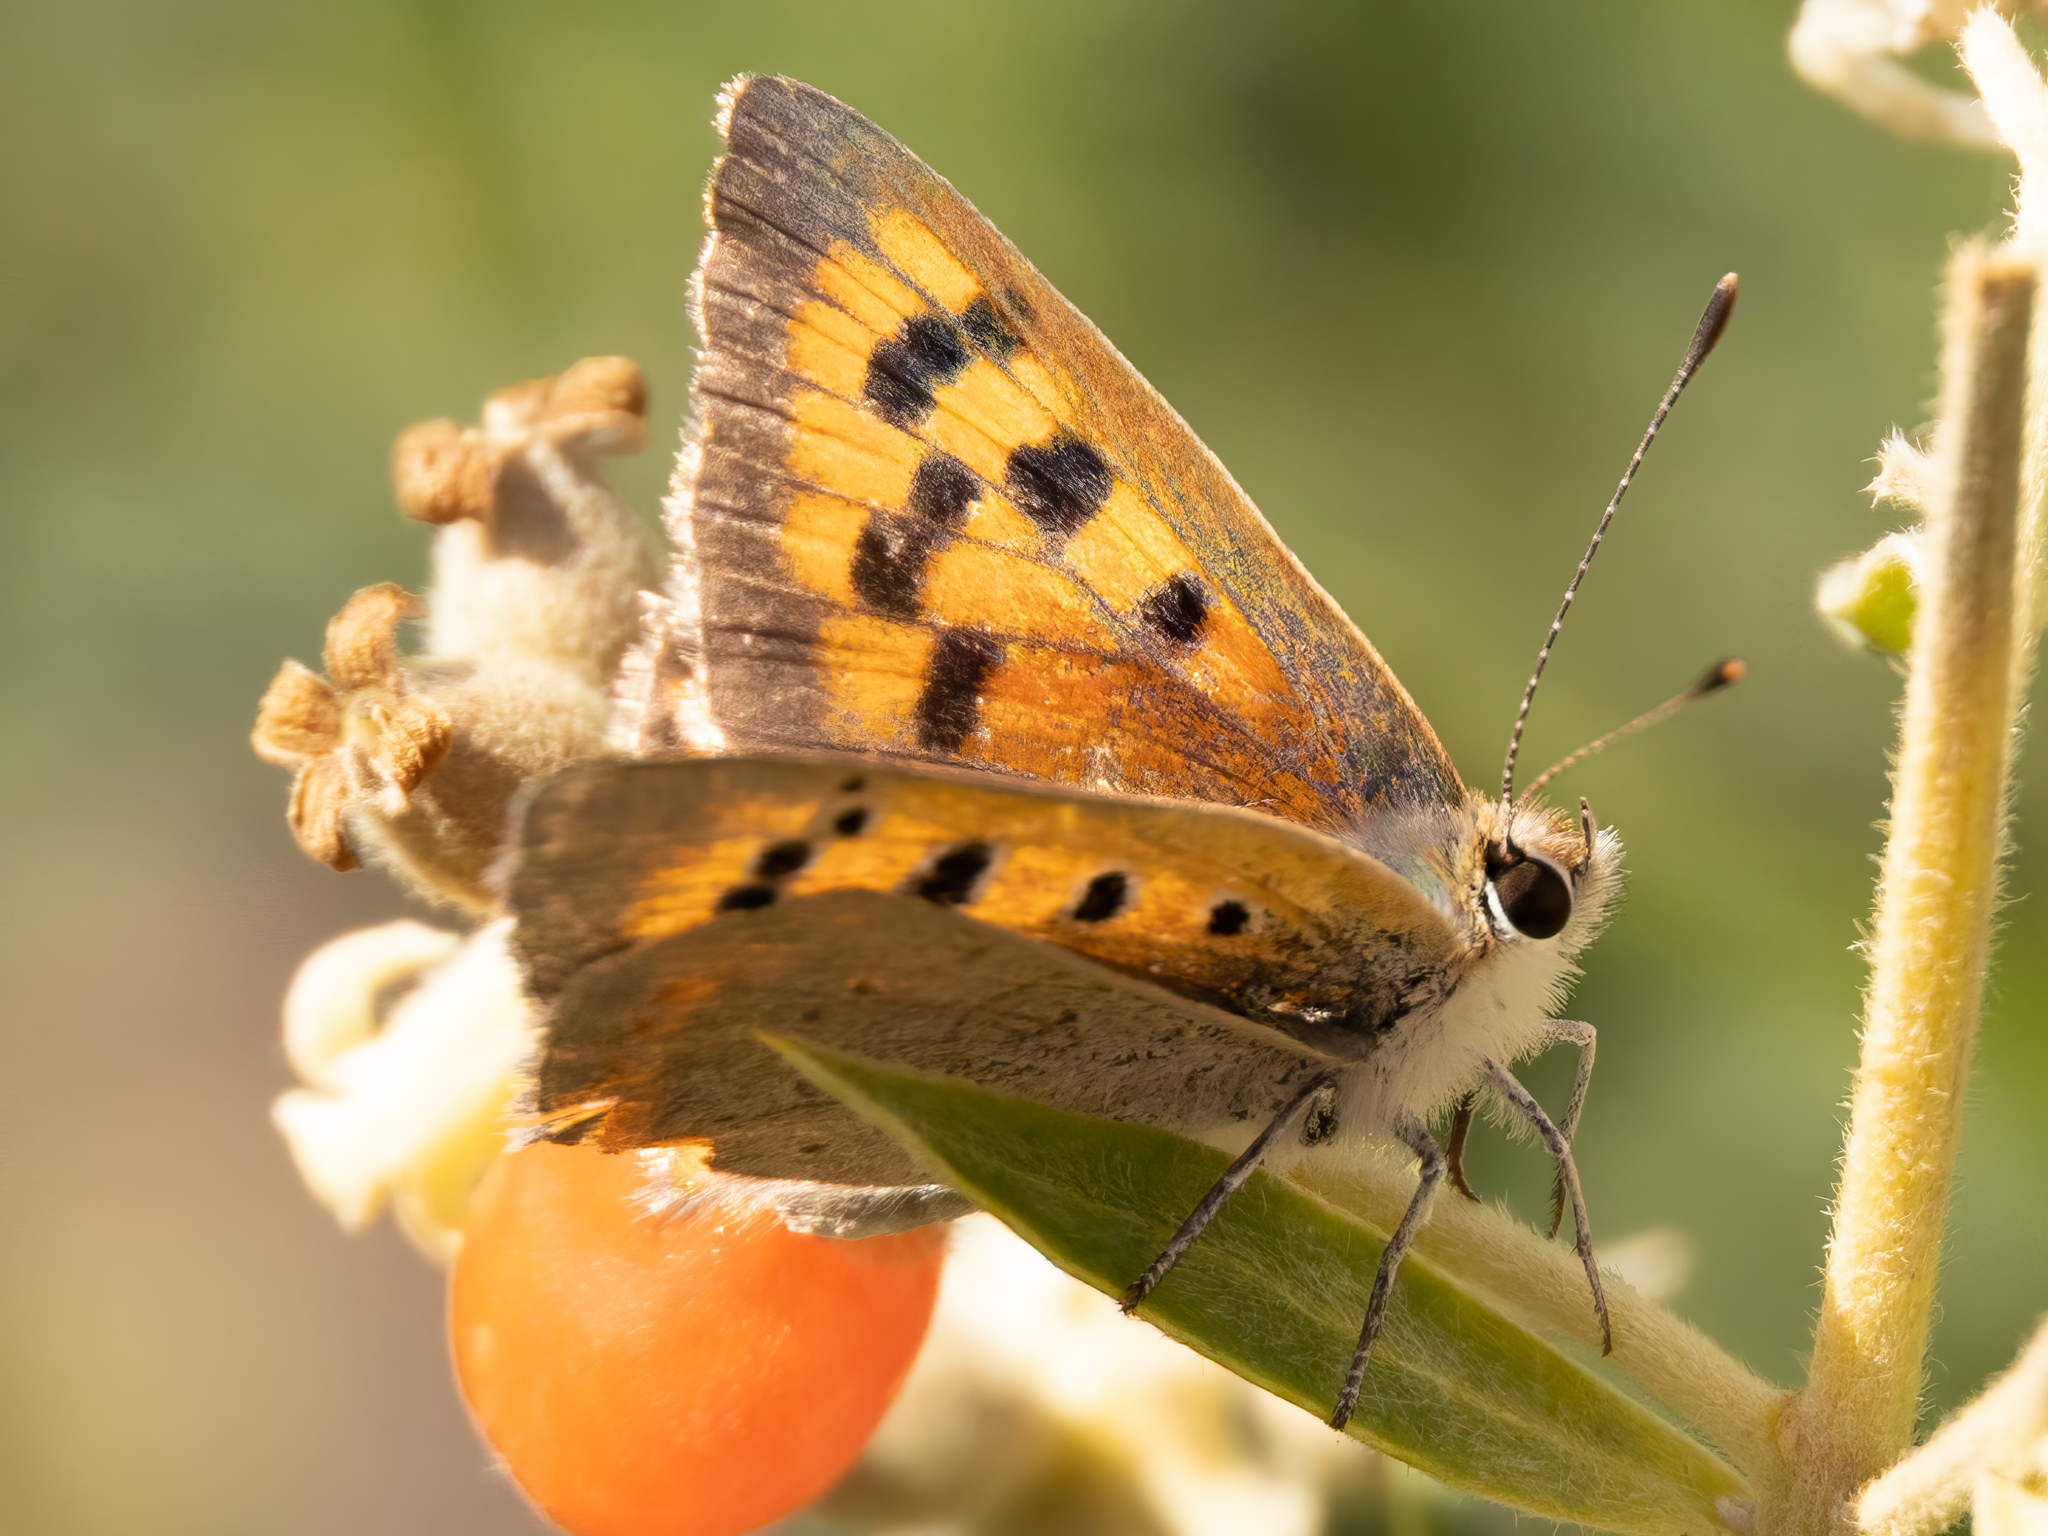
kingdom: Animalia
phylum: Arthropoda
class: Insecta
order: Lepidoptera
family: Lycaenidae
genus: Lycaena
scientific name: Lycaena phlaeas
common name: Small copper
